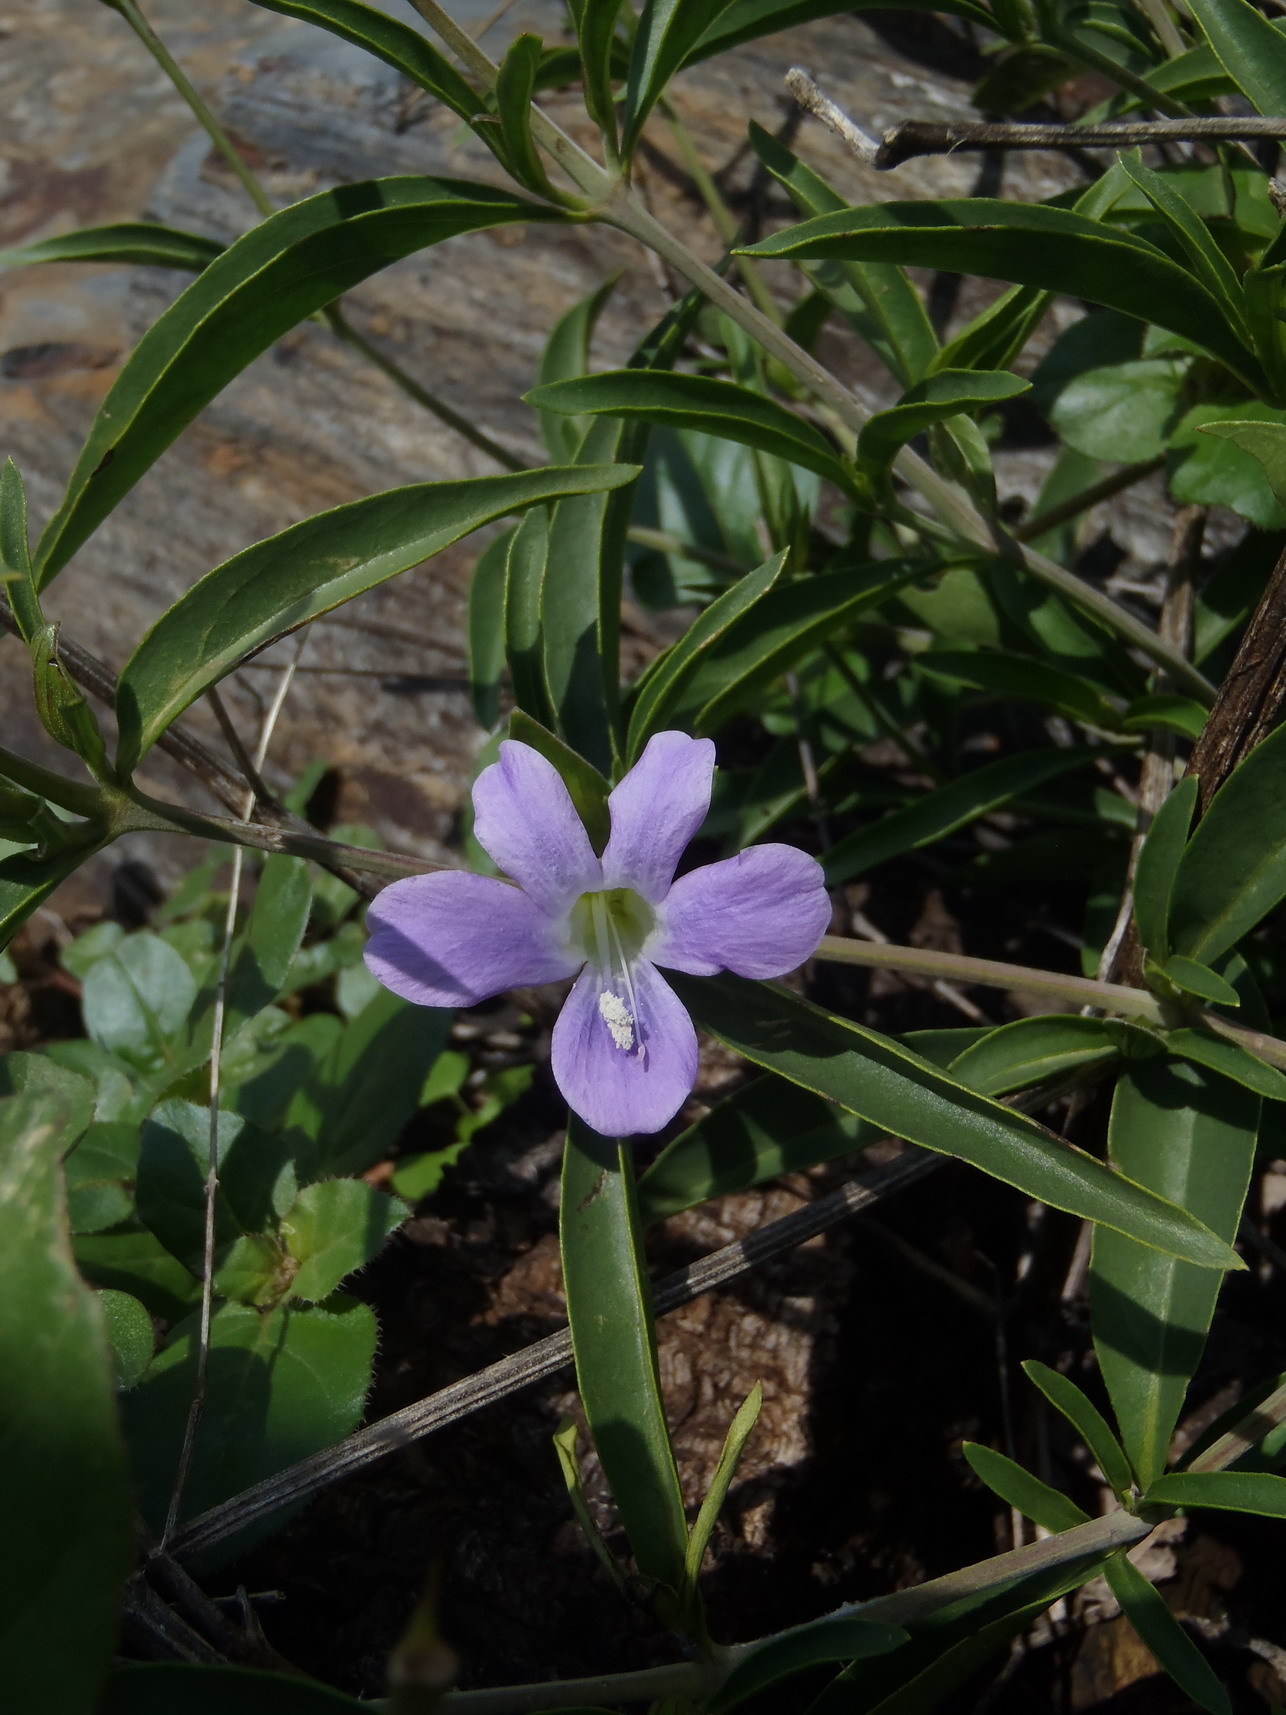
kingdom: Plantae
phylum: Tracheophyta
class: Magnoliopsida
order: Lamiales
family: Acanthaceae
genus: Barleria
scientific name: Barleria lancifolia
